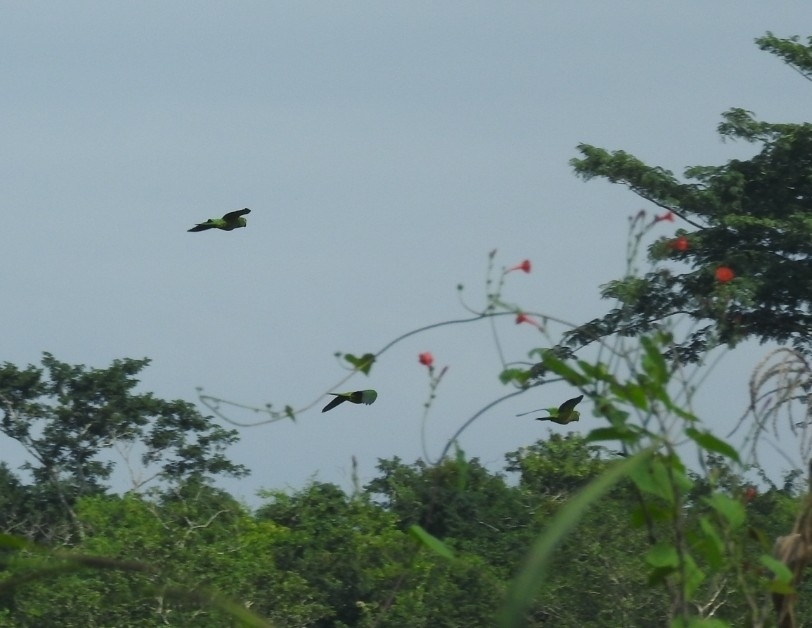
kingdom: Animalia
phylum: Chordata
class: Aves
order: Psittaciformes
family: Psittacidae
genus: Aratinga
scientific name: Aratinga nana
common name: Olive-throated parakeet
